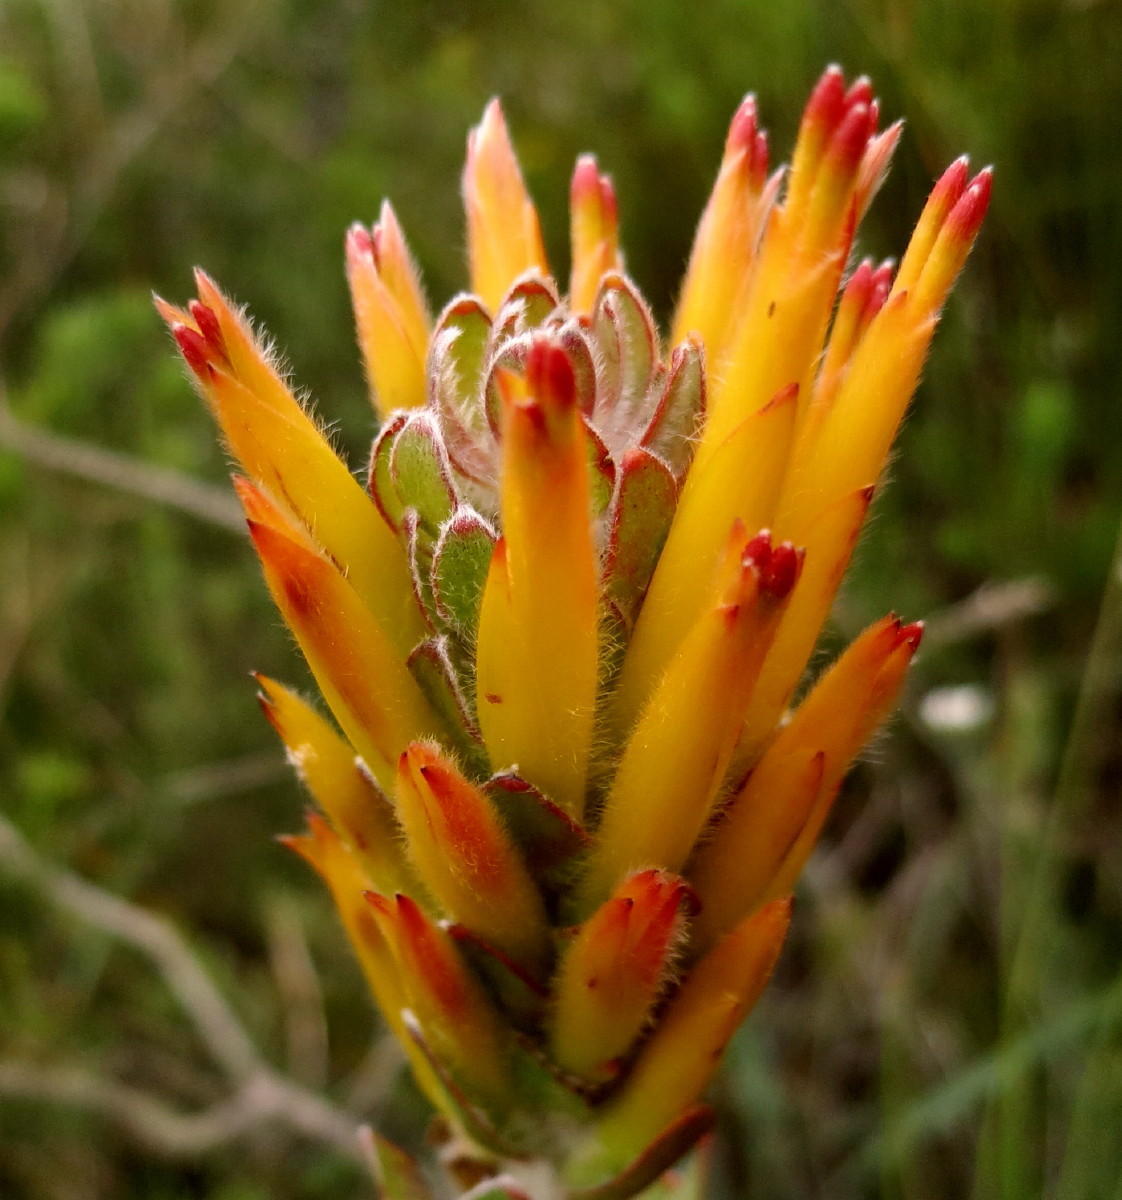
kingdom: Plantae
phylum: Tracheophyta
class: Magnoliopsida
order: Proteales
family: Proteaceae
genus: Mimetes
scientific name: Mimetes pauciflora
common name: Three-flowered pagoda
